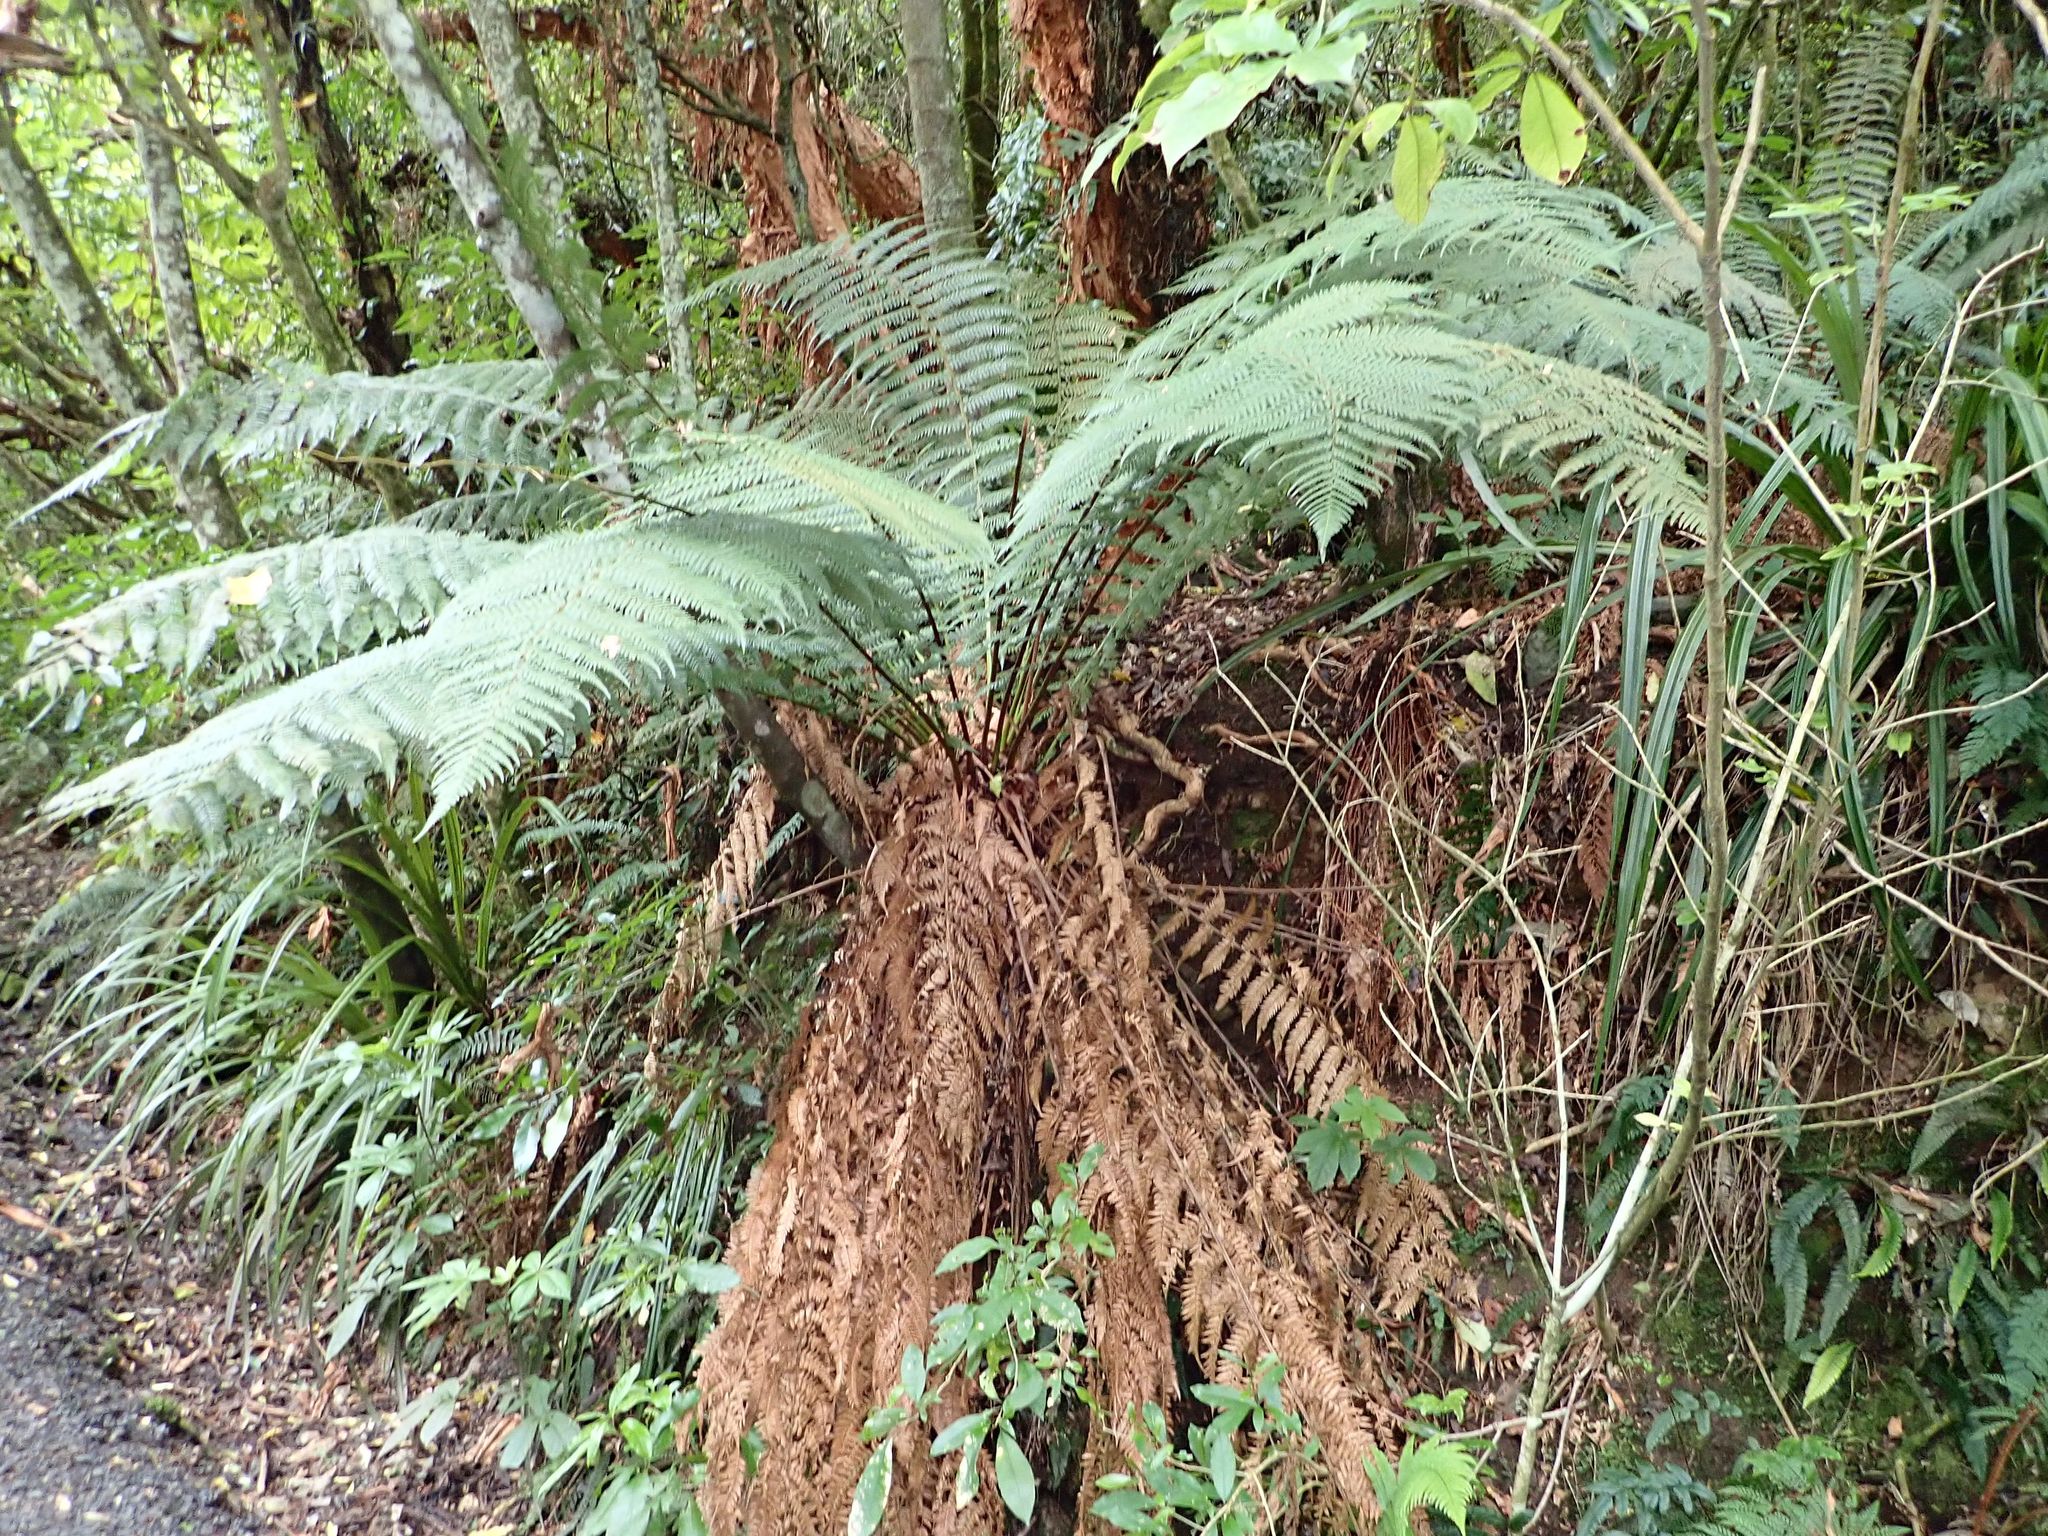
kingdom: Plantae
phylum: Tracheophyta
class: Polypodiopsida
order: Cyatheales
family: Dicksoniaceae
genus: Dicksonia
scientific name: Dicksonia fibrosa
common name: Golden tree fern
